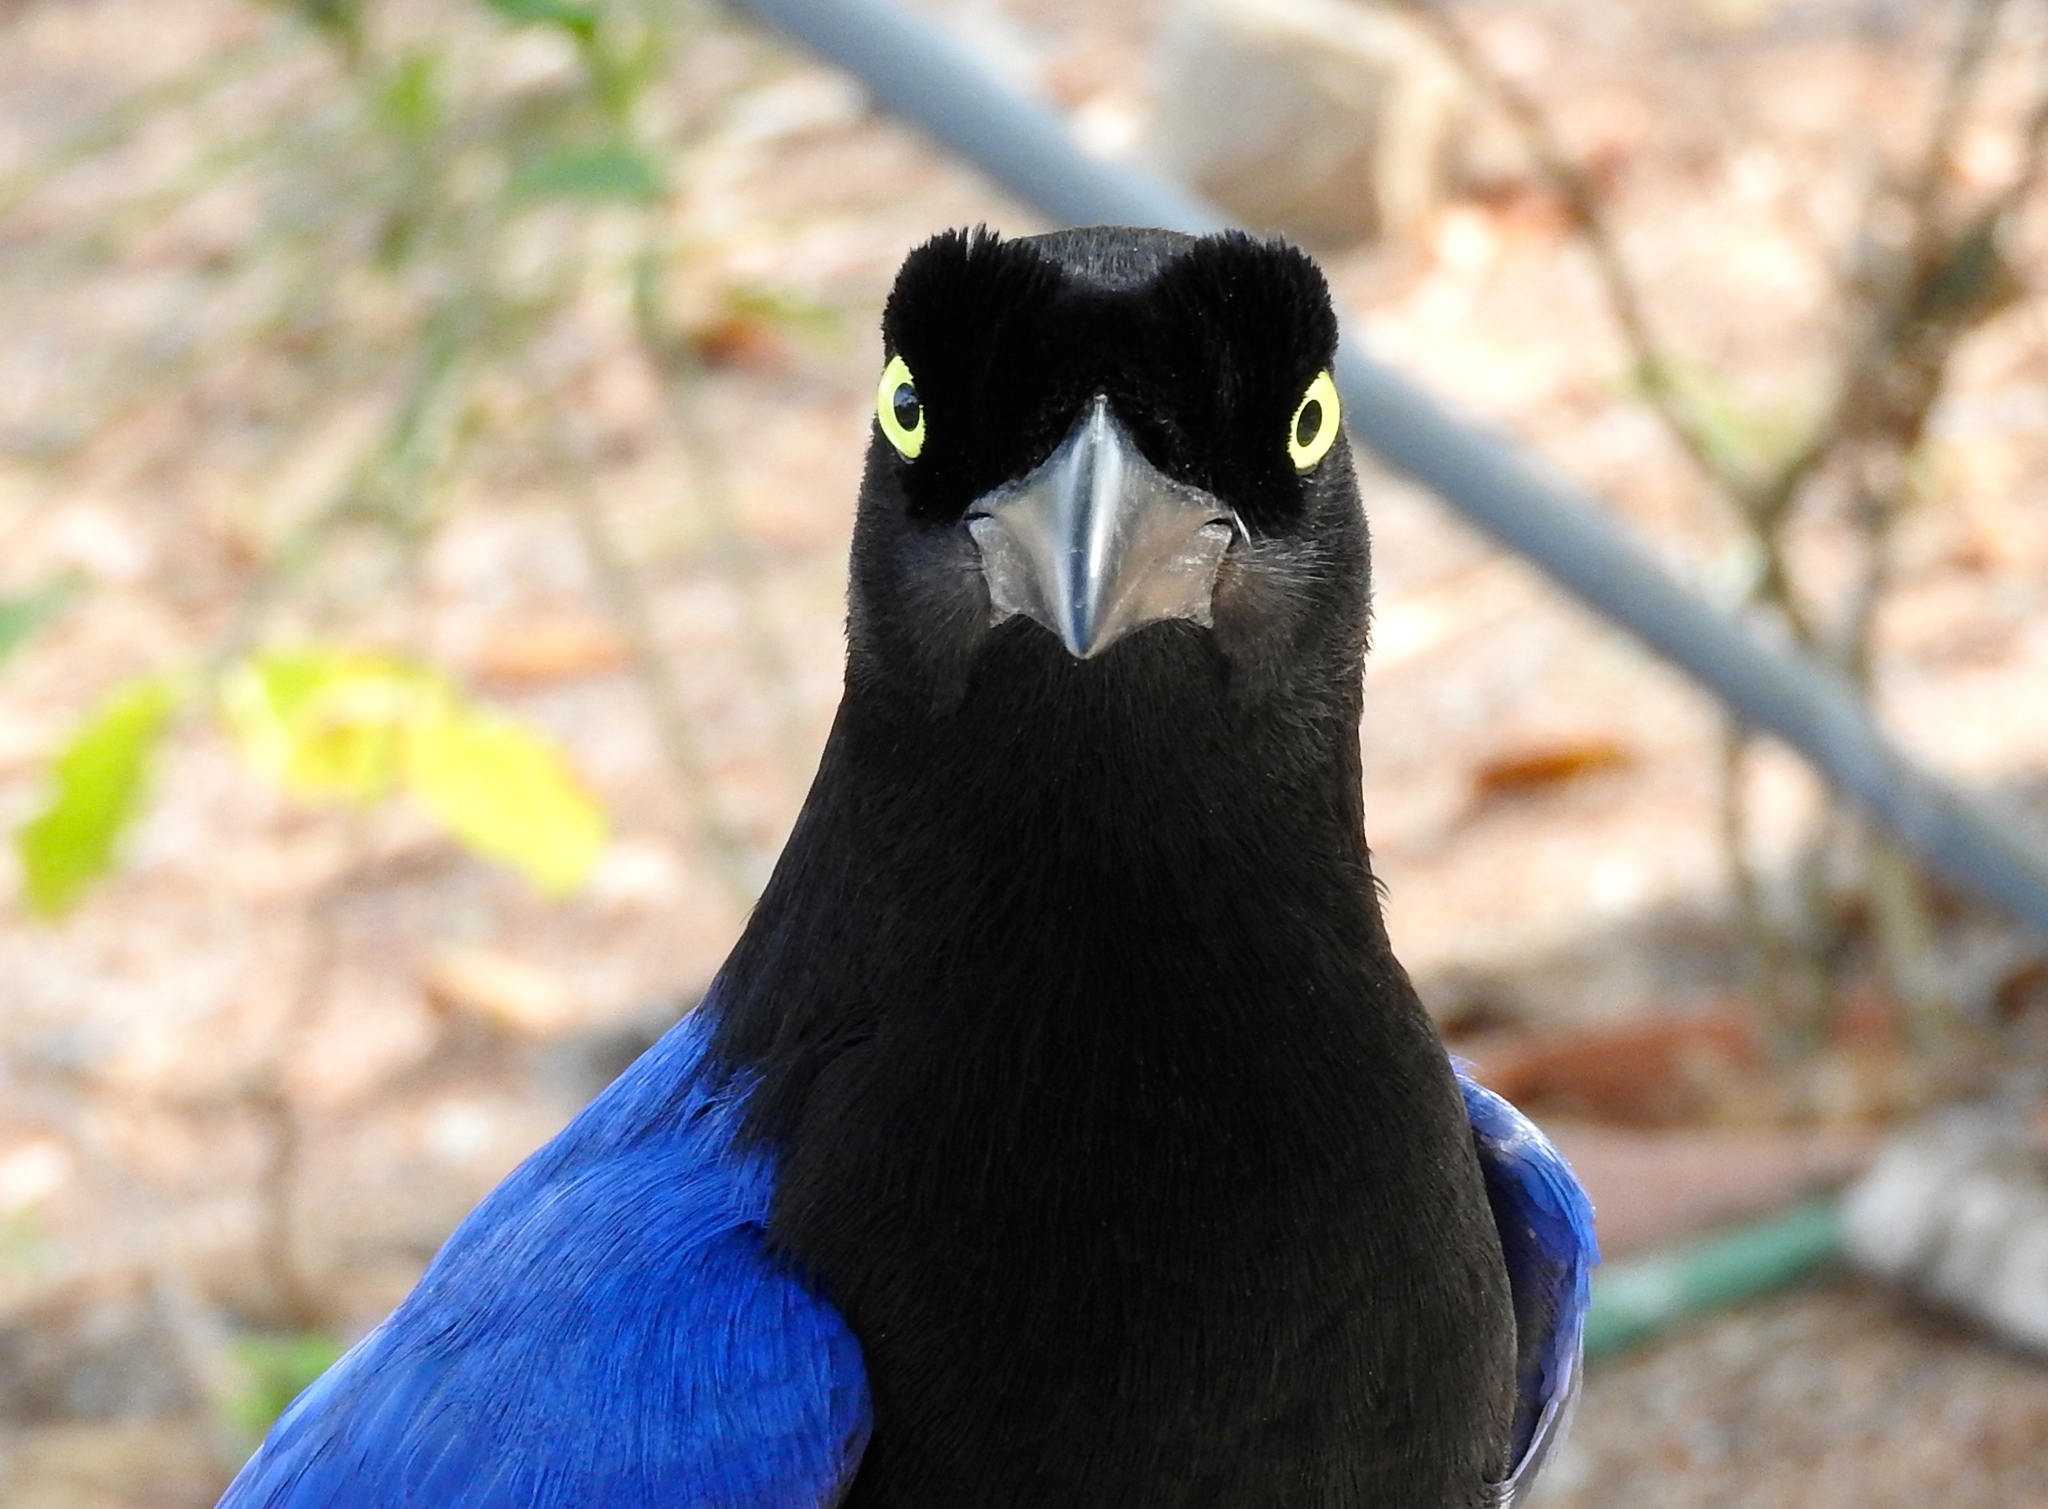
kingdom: Animalia
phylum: Chordata
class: Aves
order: Passeriformes
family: Corvidae
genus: Cyanocorax
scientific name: Cyanocorax beecheii
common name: Purplish-backed jay
